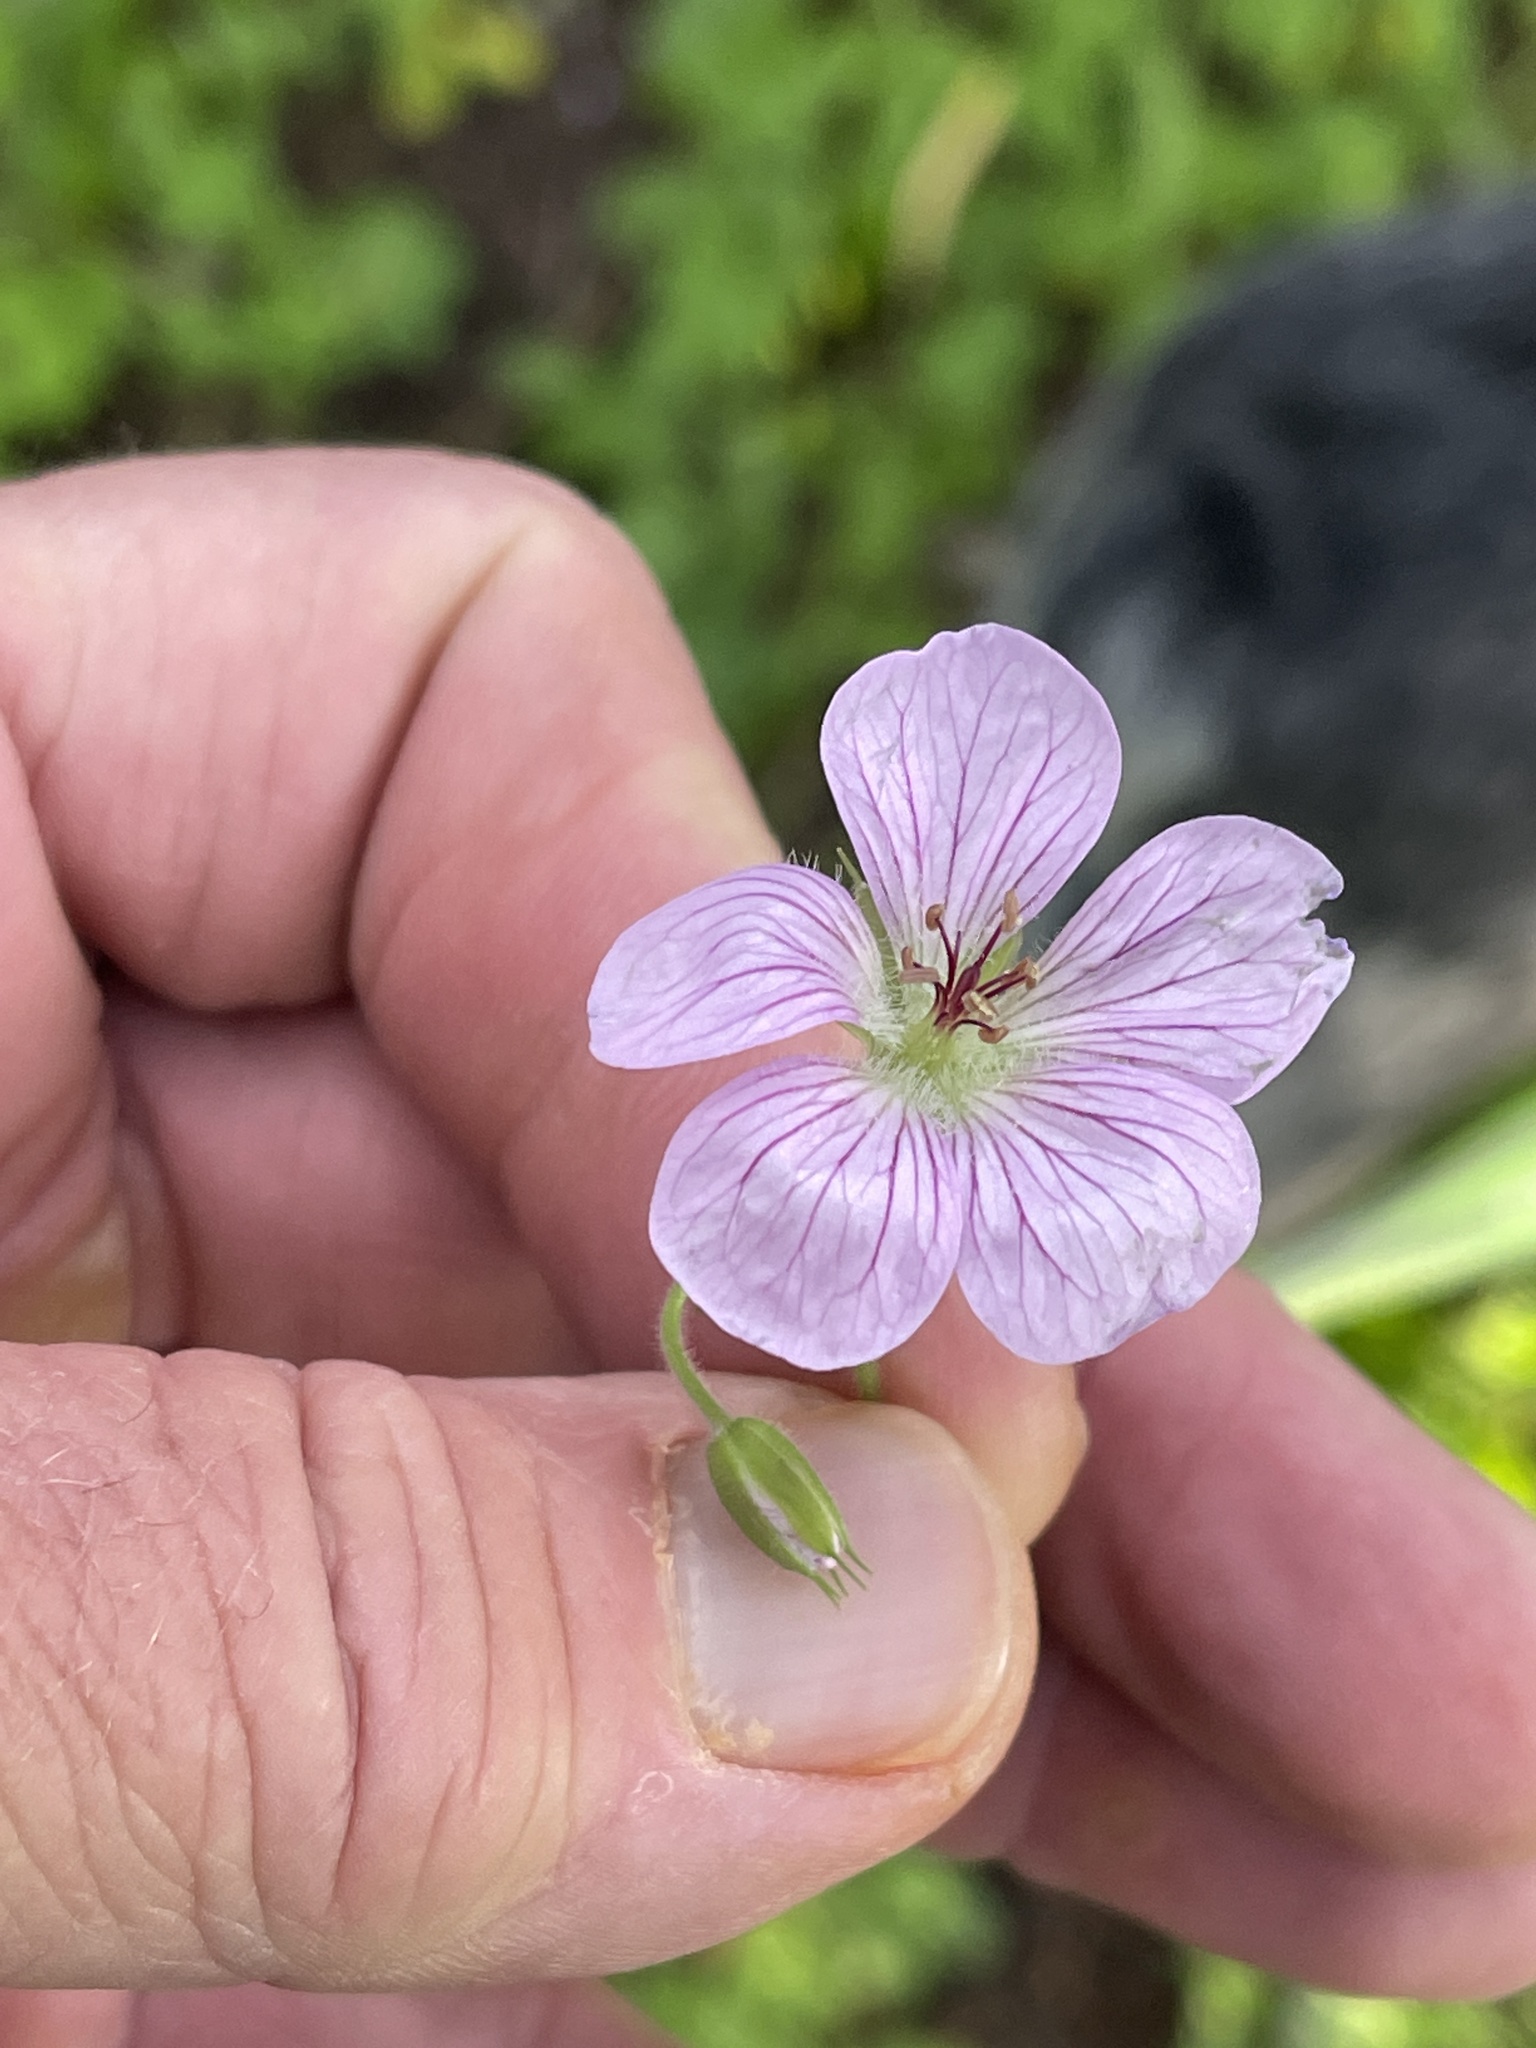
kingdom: Plantae
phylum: Tracheophyta
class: Magnoliopsida
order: Geraniales
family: Geraniaceae
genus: Geranium
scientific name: Geranium richardsonii
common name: Richardson's crane's-bill
